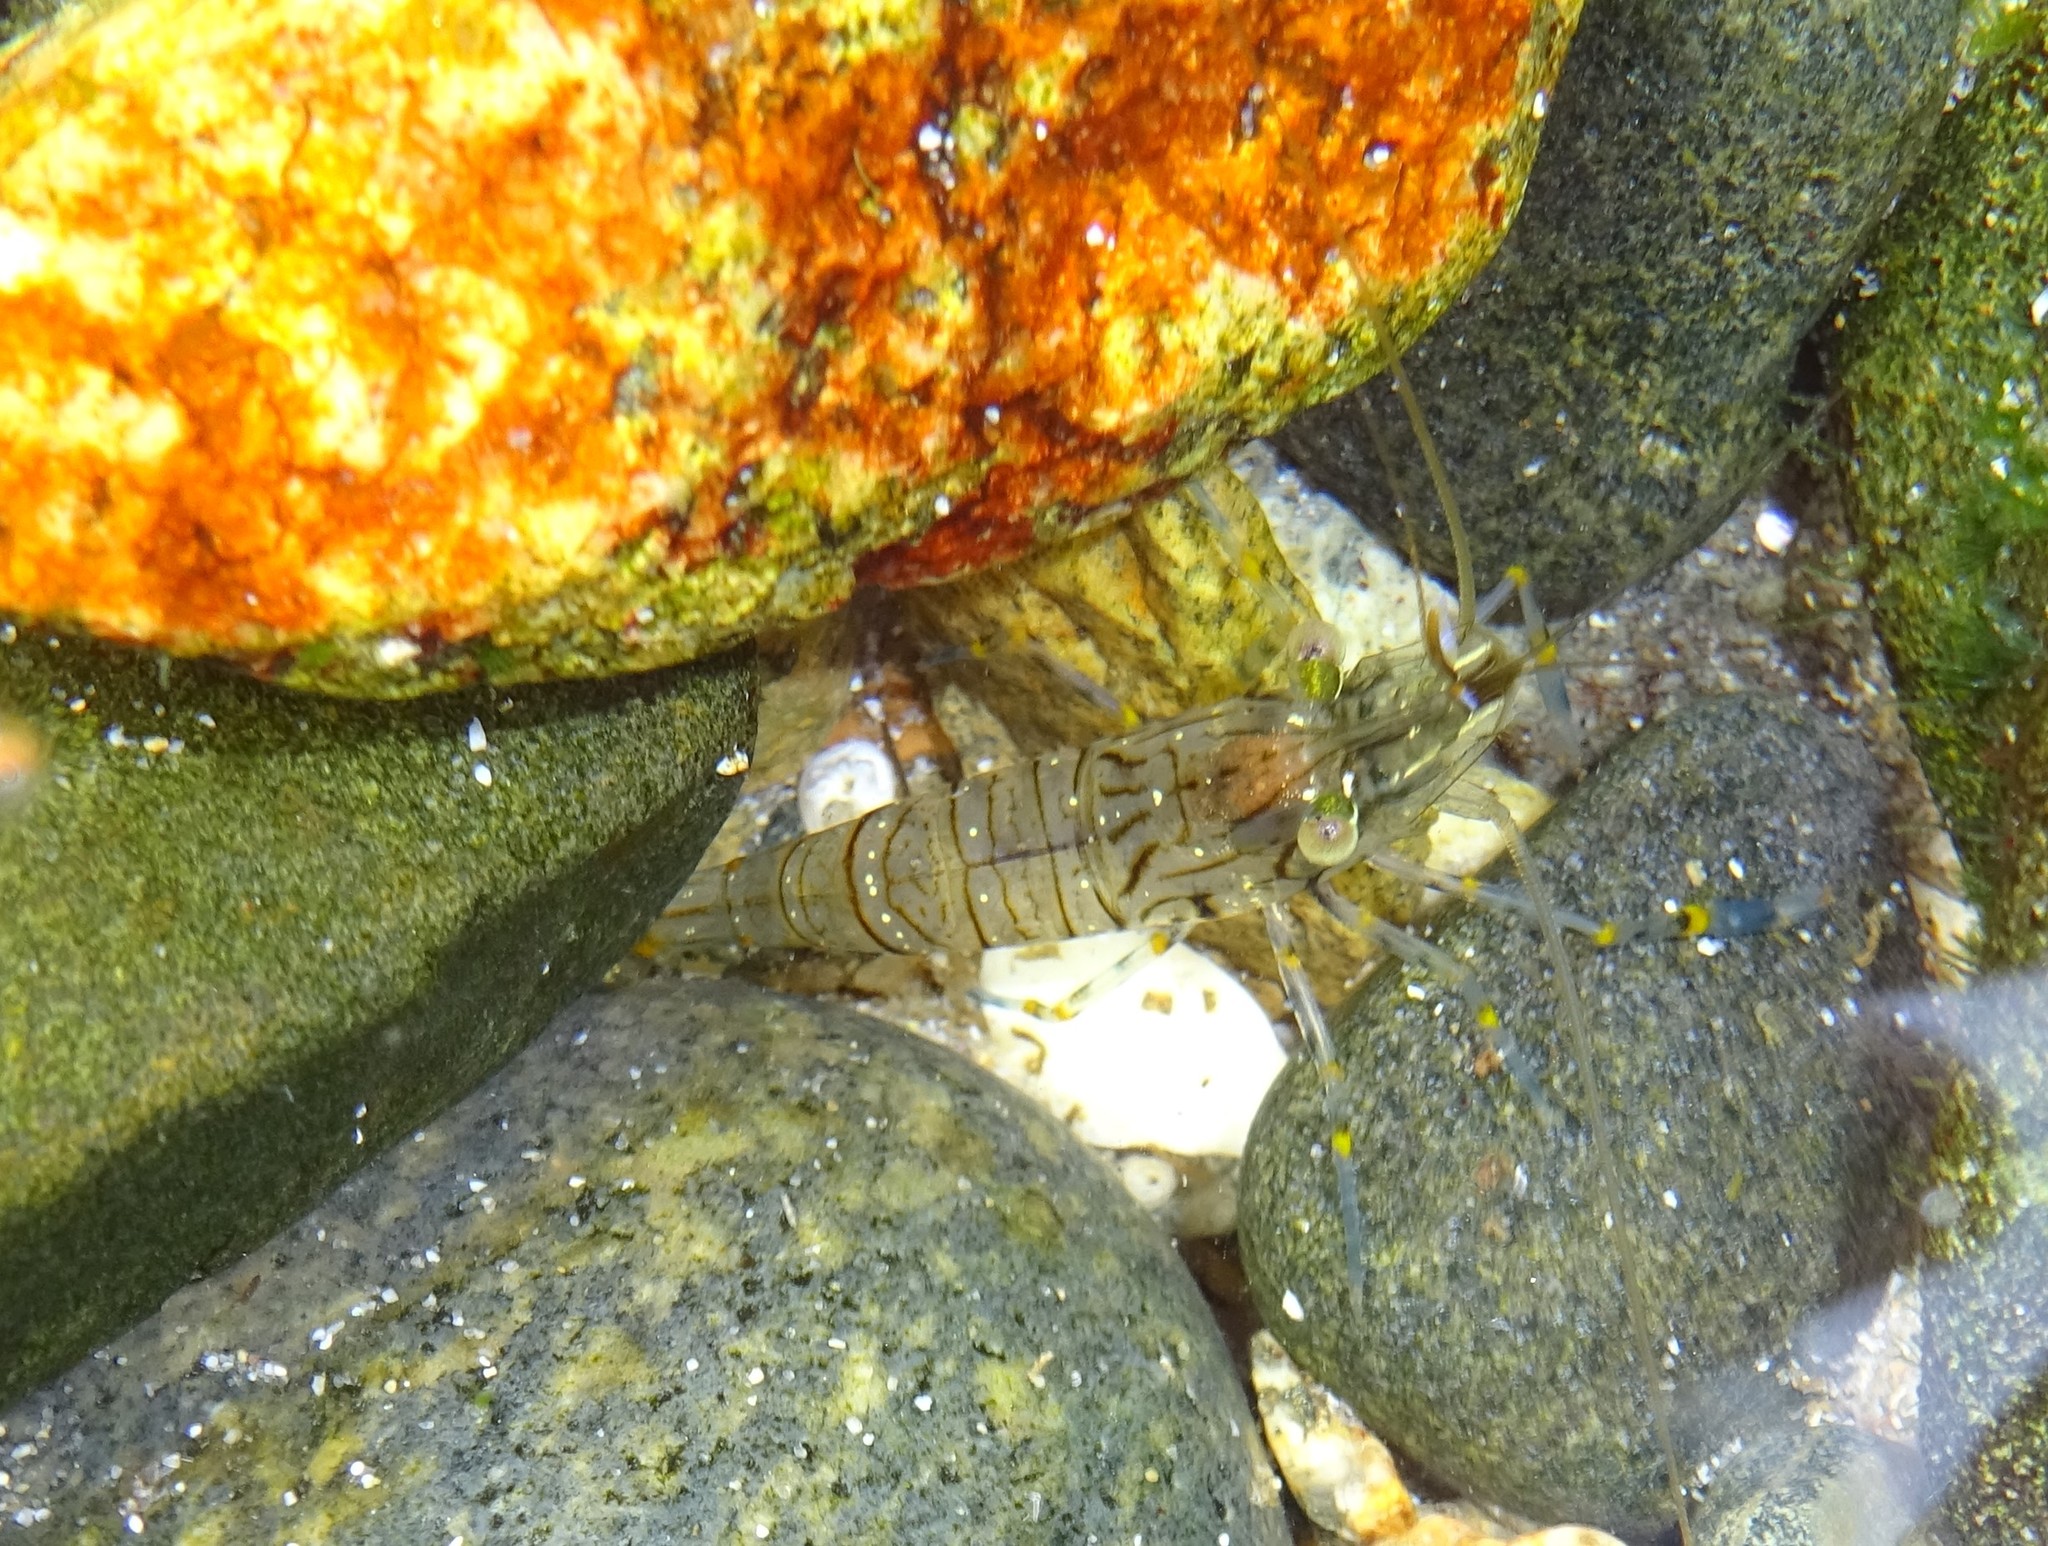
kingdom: Animalia
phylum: Arthropoda
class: Malacostraca
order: Decapoda
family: Palaemonidae
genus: Palaemon
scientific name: Palaemon elegans
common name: Grass prawm
